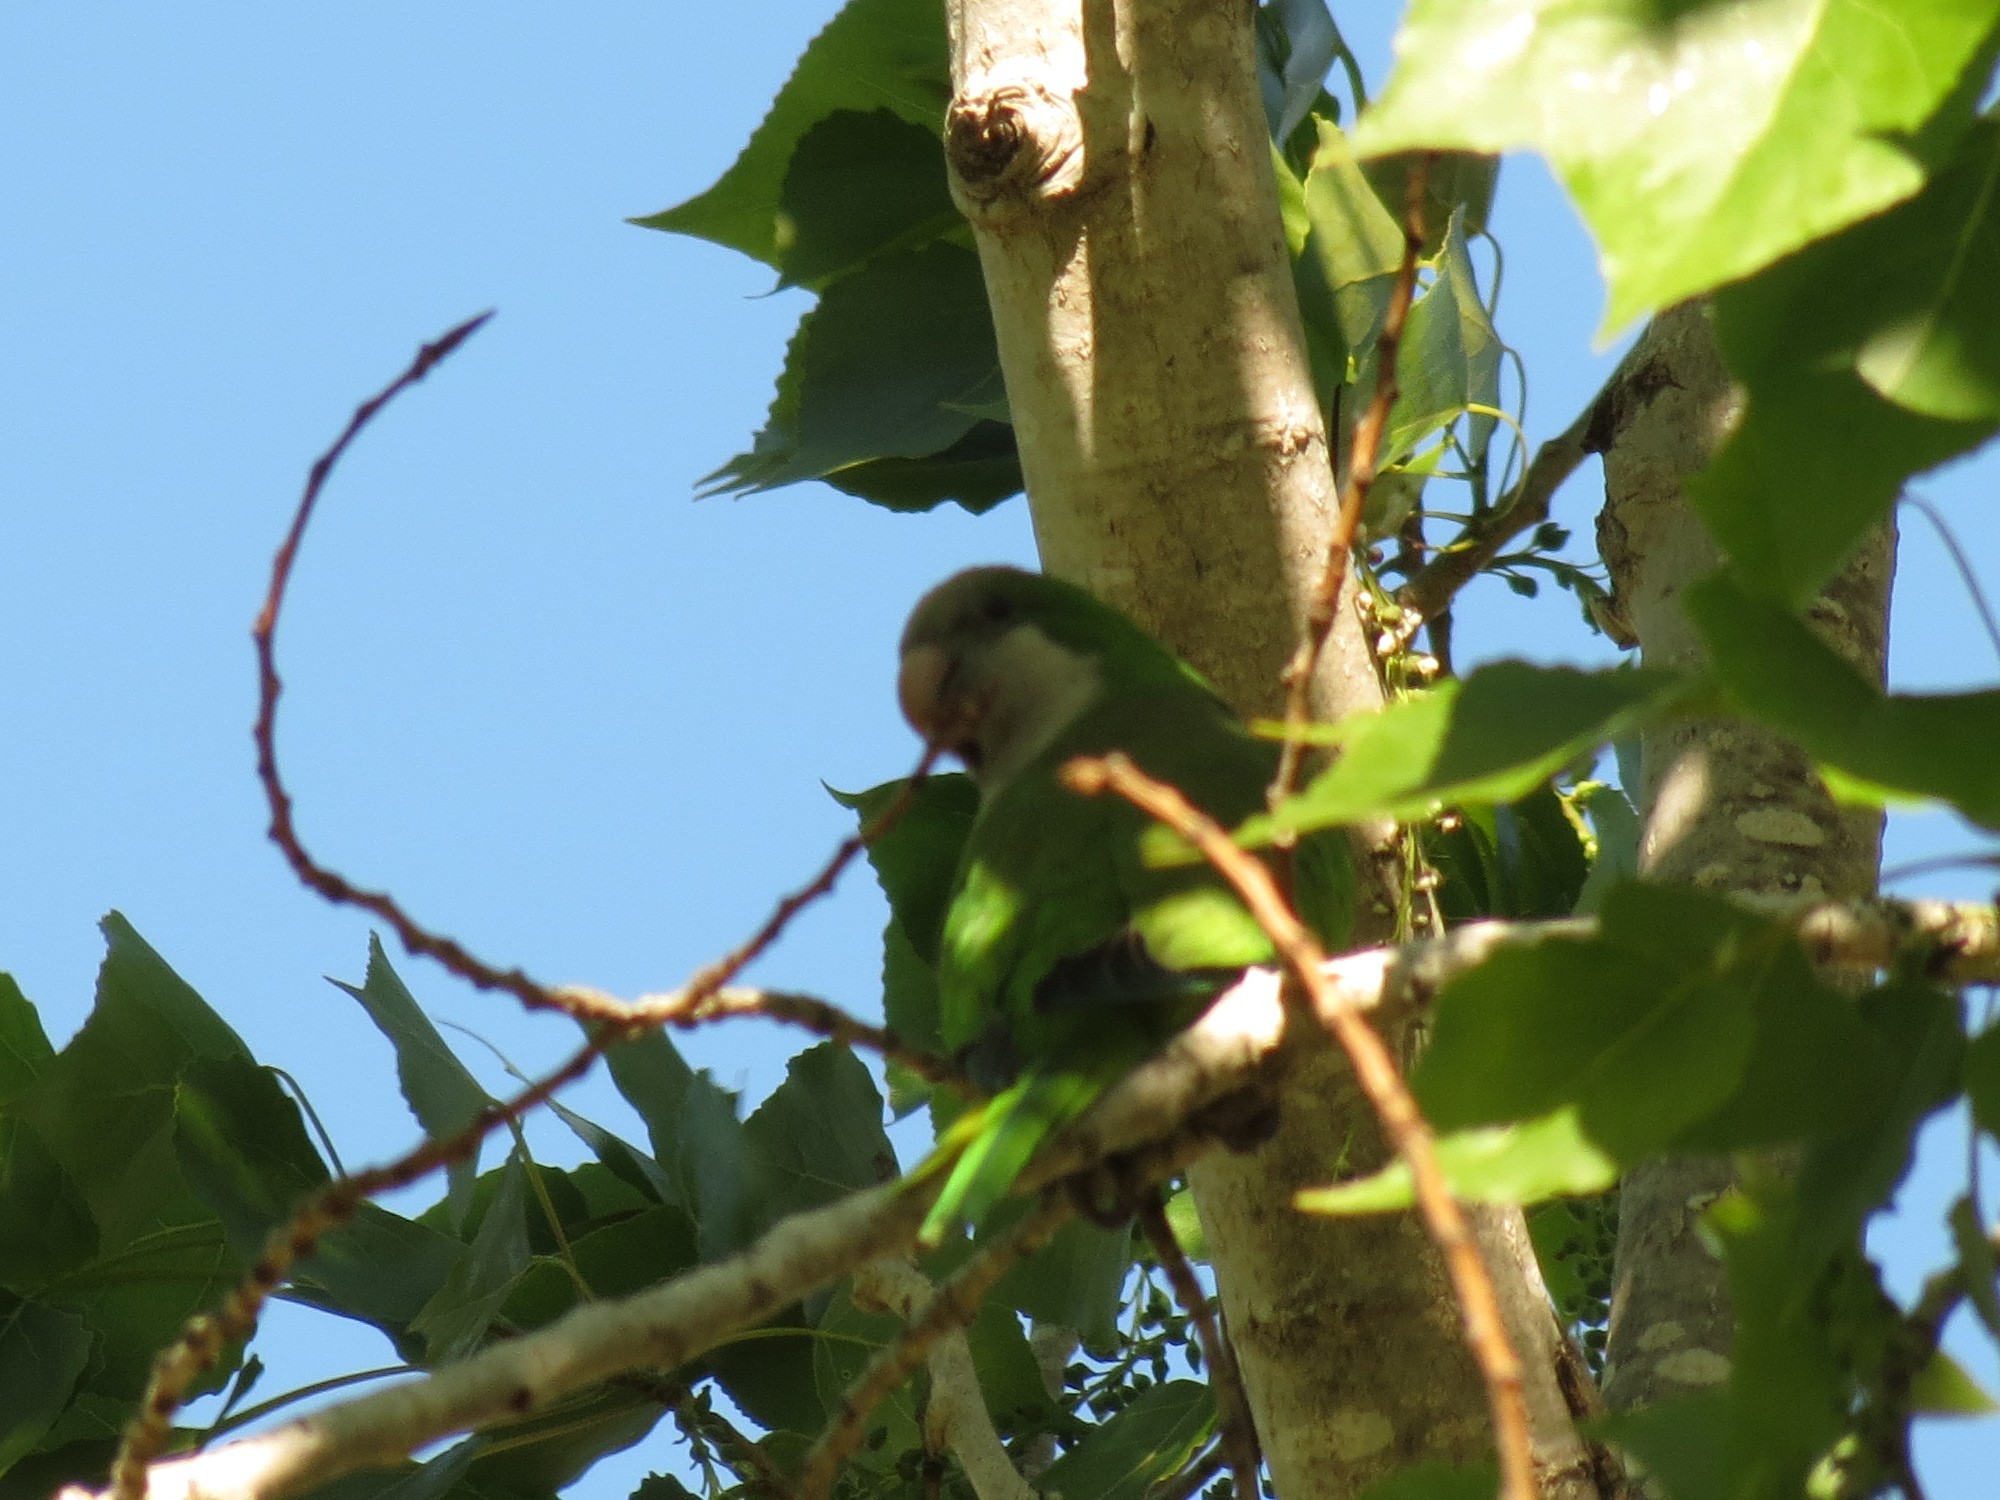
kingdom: Animalia
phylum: Chordata
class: Aves
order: Psittaciformes
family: Psittacidae
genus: Myiopsitta
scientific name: Myiopsitta monachus
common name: Monk parakeet
